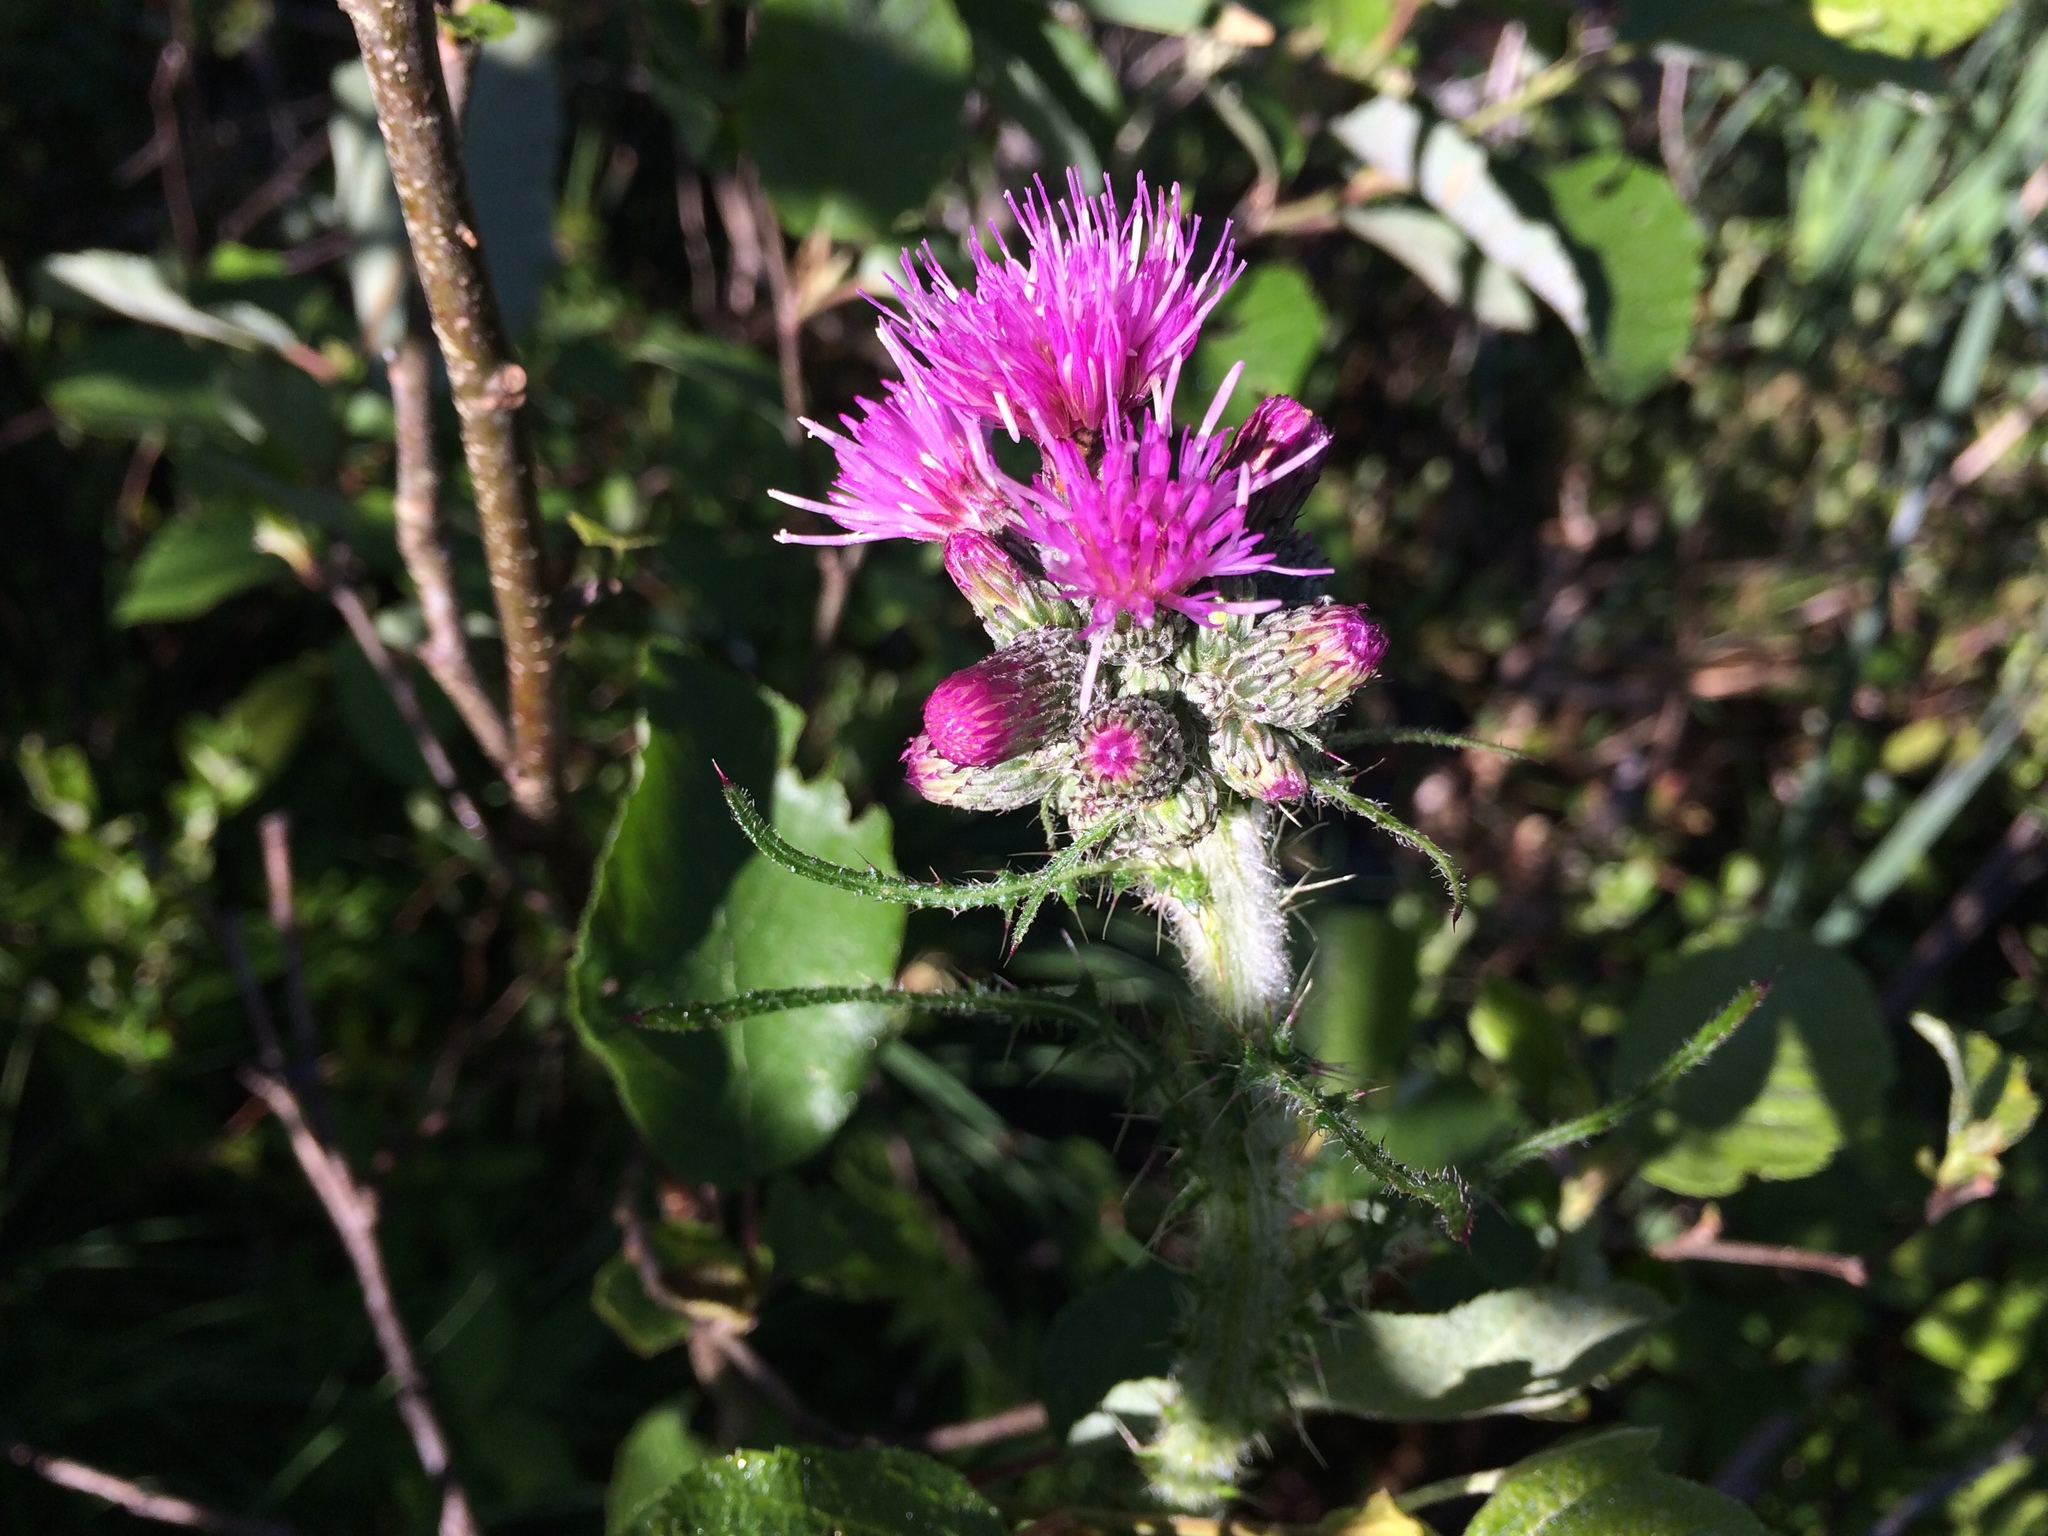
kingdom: Plantae
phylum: Tracheophyta
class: Magnoliopsida
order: Asterales
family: Asteraceae
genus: Cirsium
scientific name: Cirsium palustre
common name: Marsh thistle
